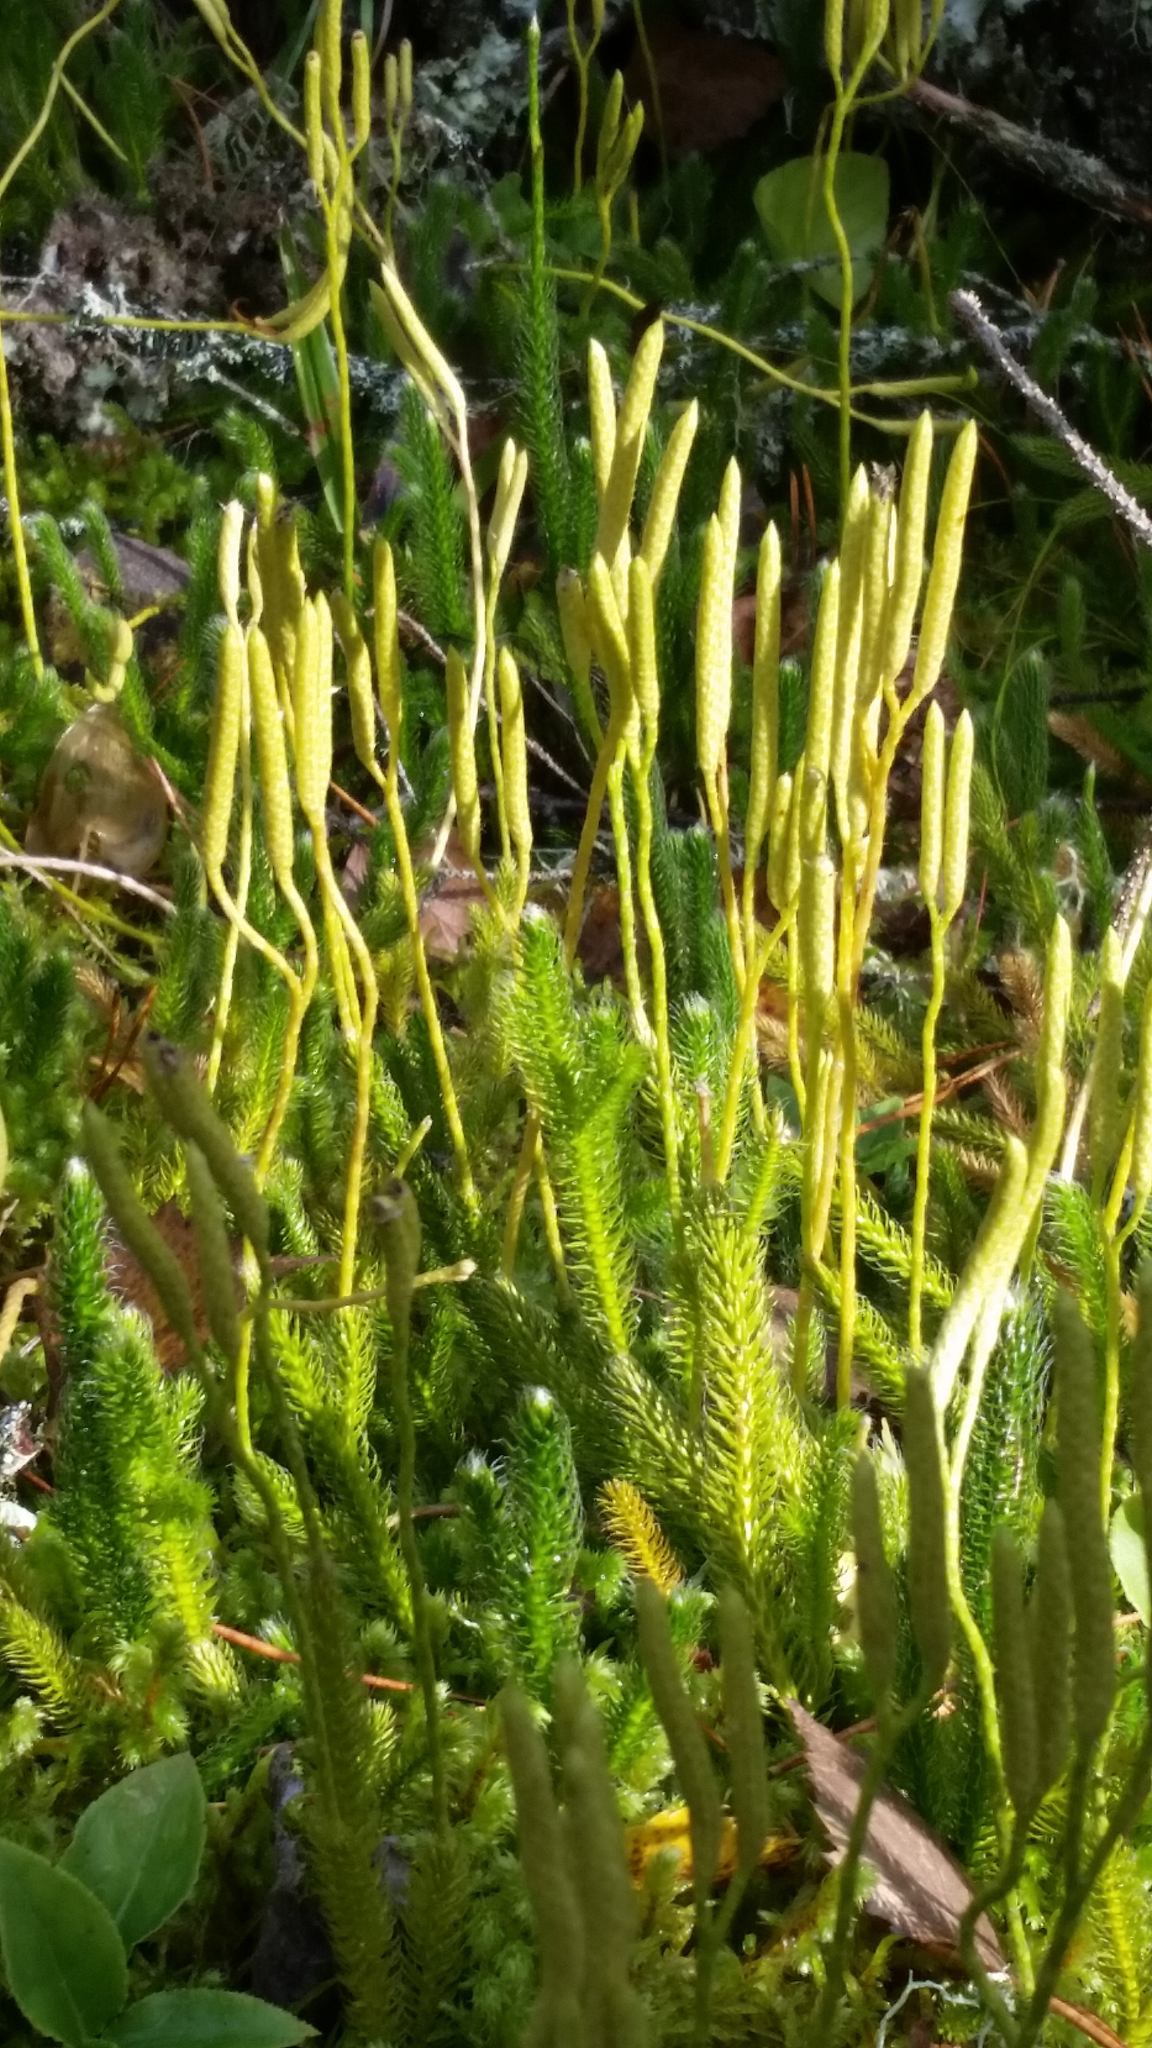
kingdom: Plantae
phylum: Tracheophyta
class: Lycopodiopsida
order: Lycopodiales
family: Lycopodiaceae
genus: Lycopodium
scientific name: Lycopodium clavatum
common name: Stag's-horn clubmoss
